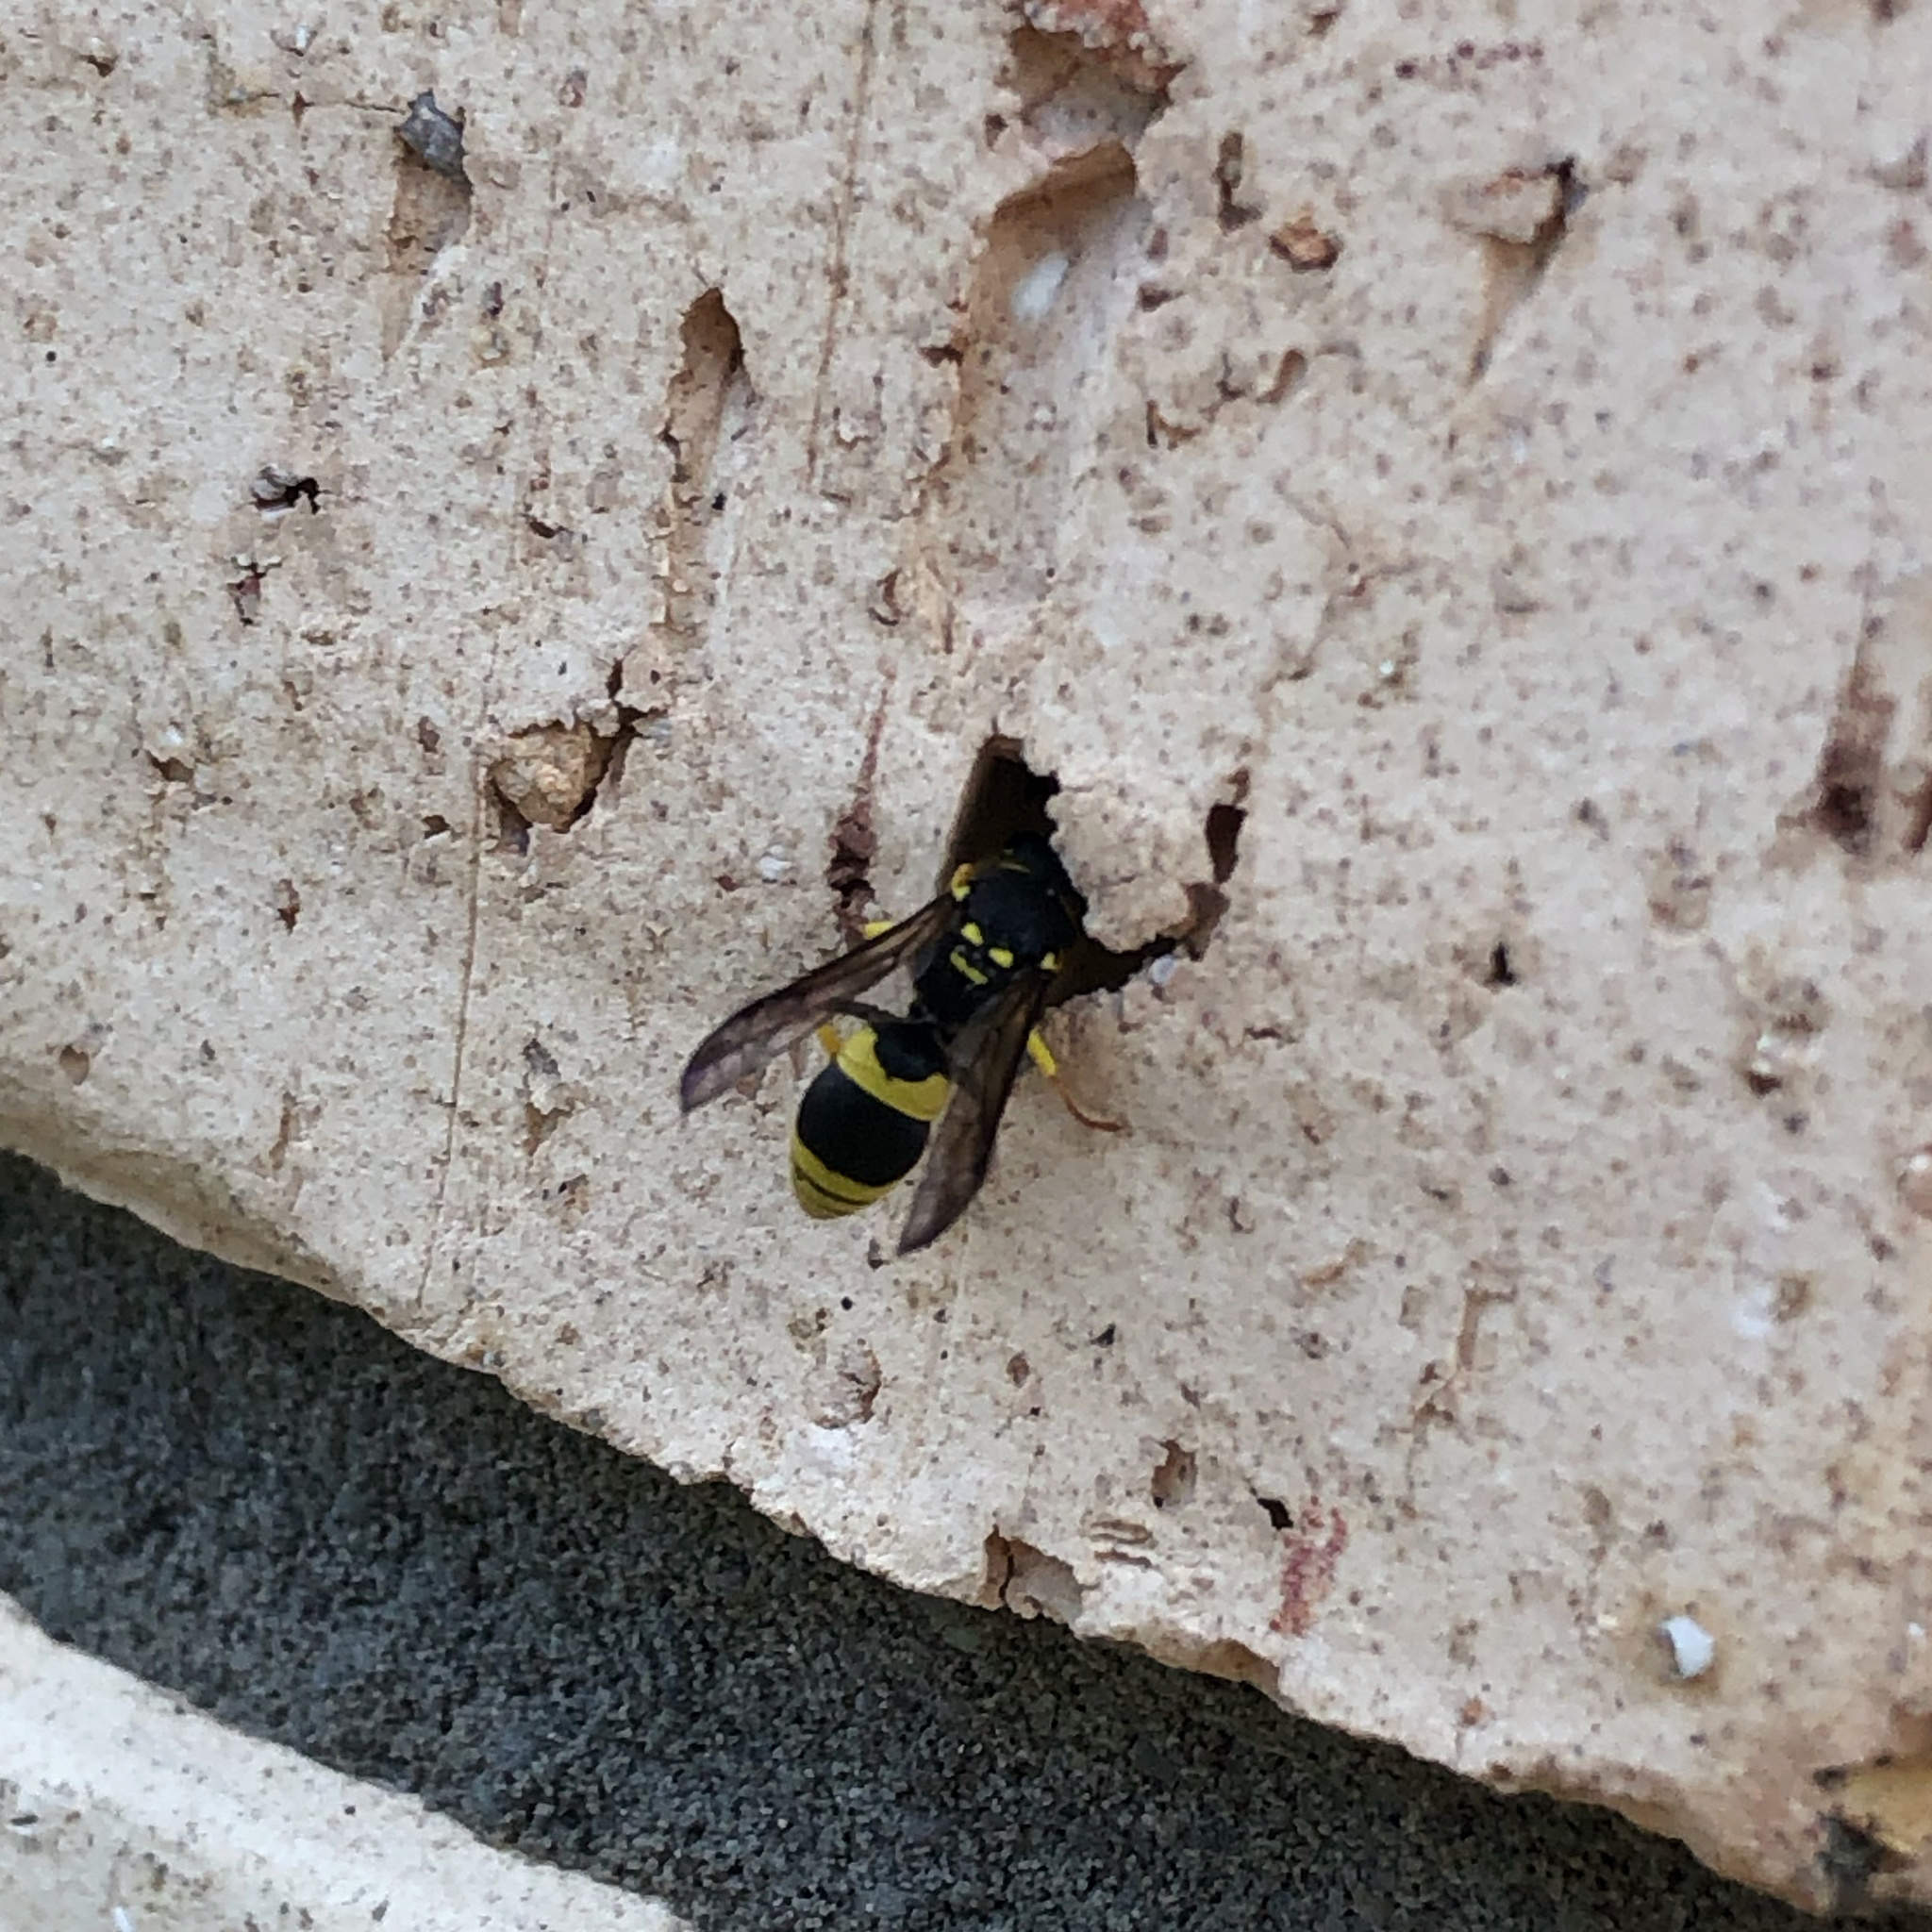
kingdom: Animalia
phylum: Arthropoda
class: Insecta
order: Hymenoptera
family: Vespidae
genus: Ancistrocerus
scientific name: Ancistrocerus gazella
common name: European tube wasp
